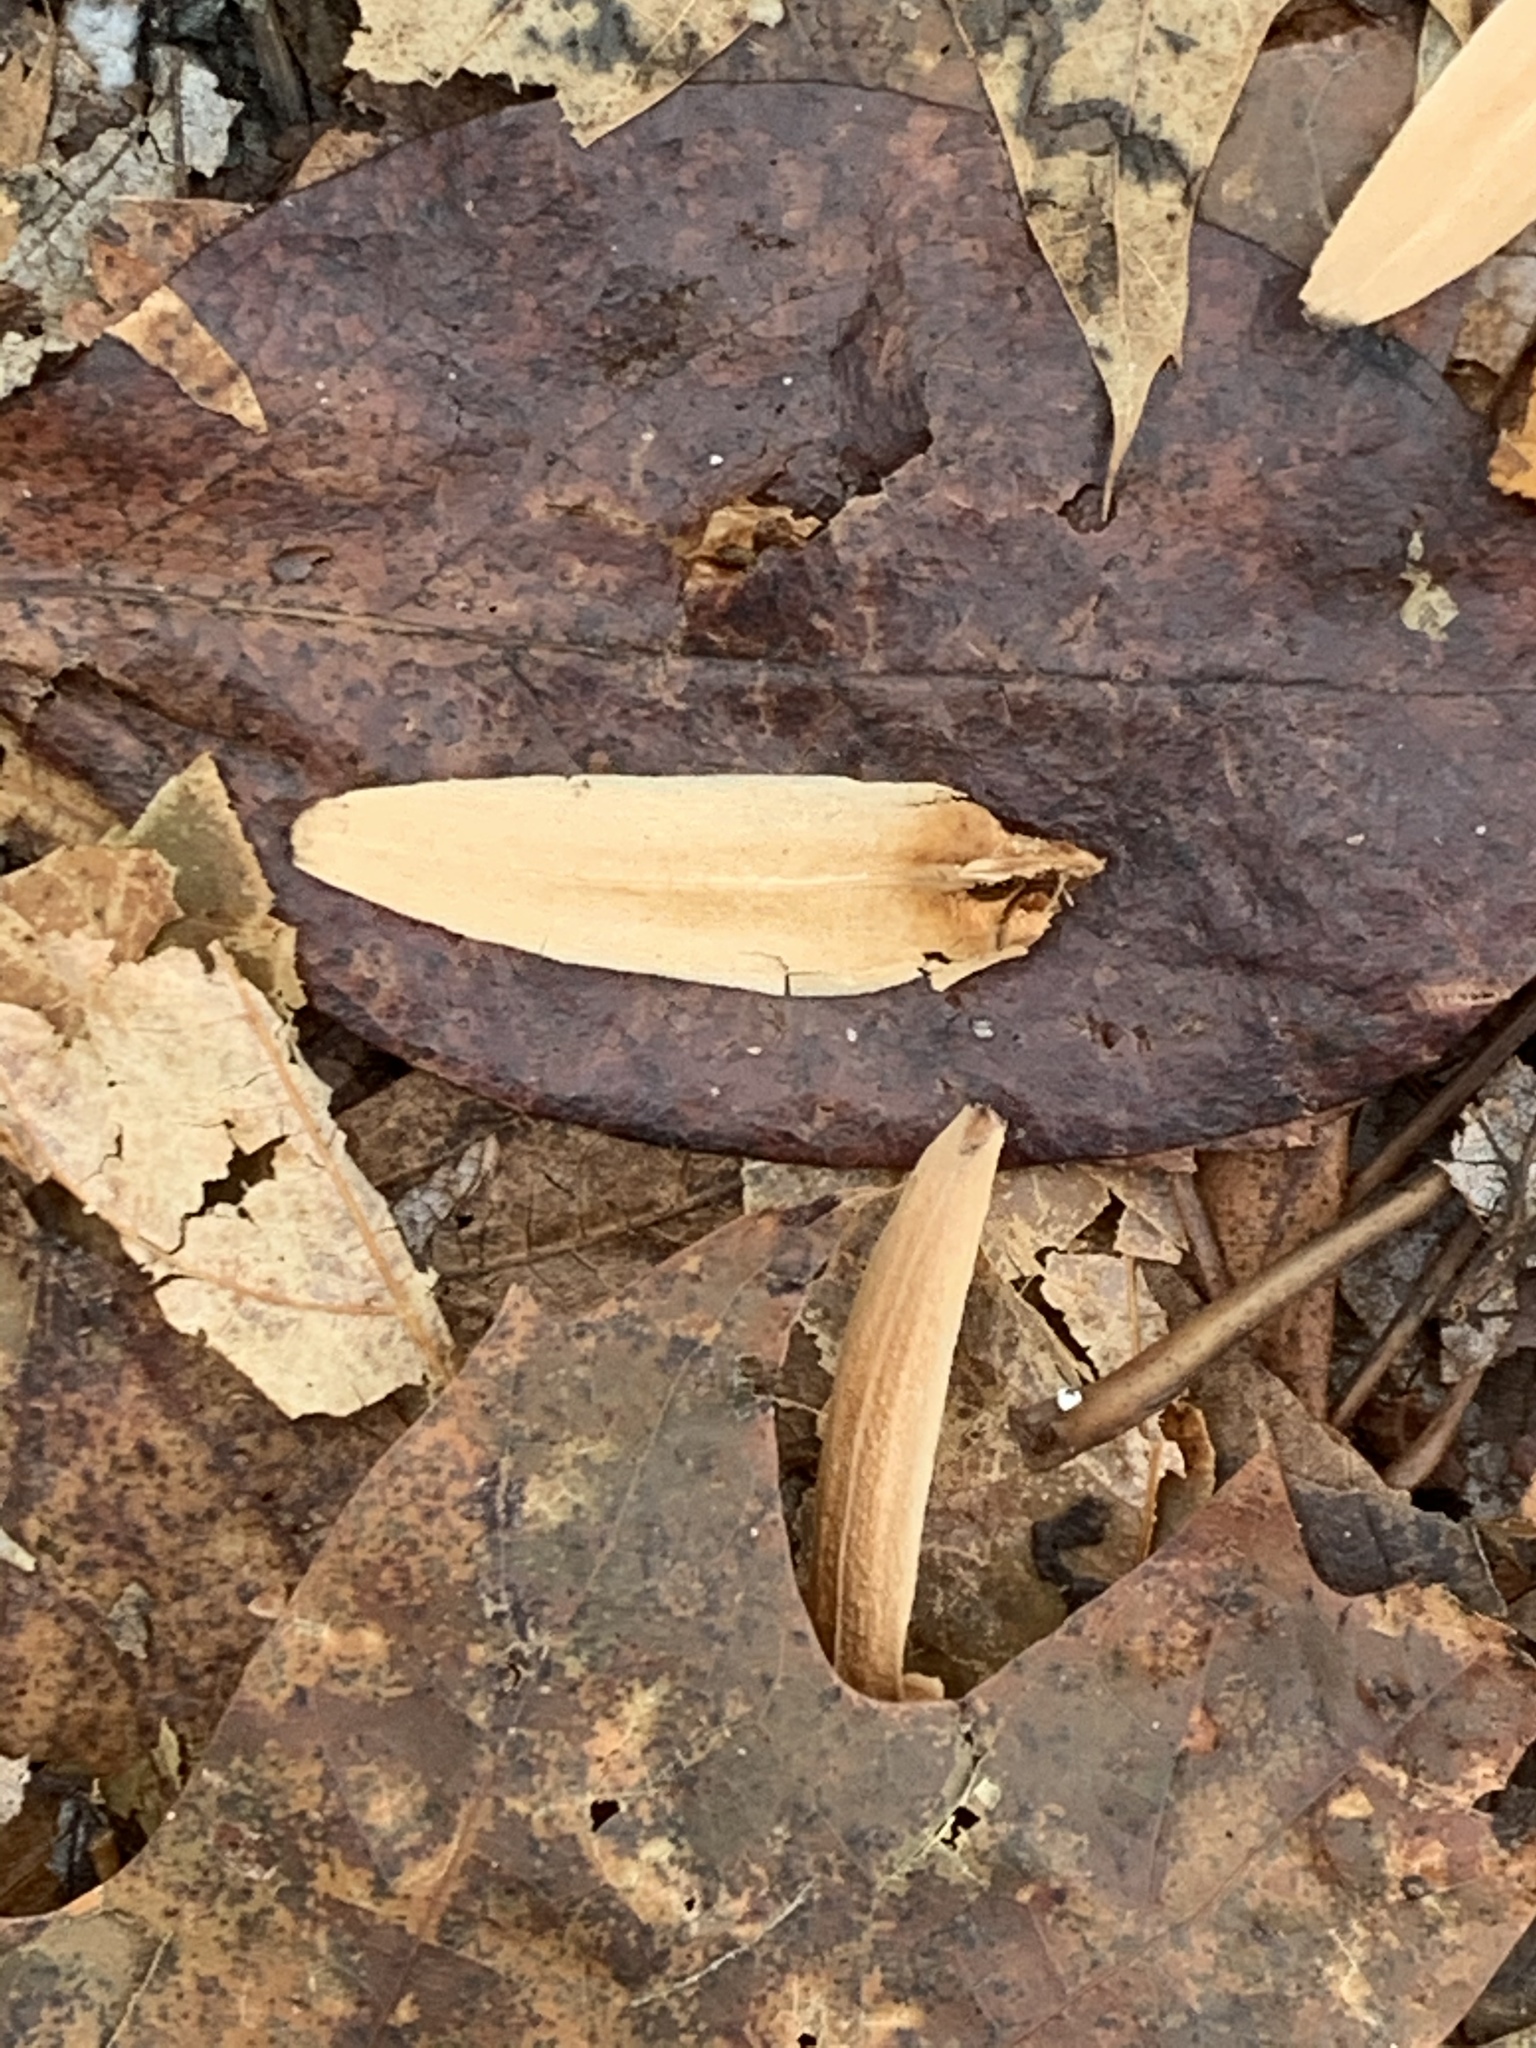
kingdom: Plantae
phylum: Tracheophyta
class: Magnoliopsida
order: Magnoliales
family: Magnoliaceae
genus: Liriodendron
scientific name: Liriodendron tulipifera
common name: Tulip tree
